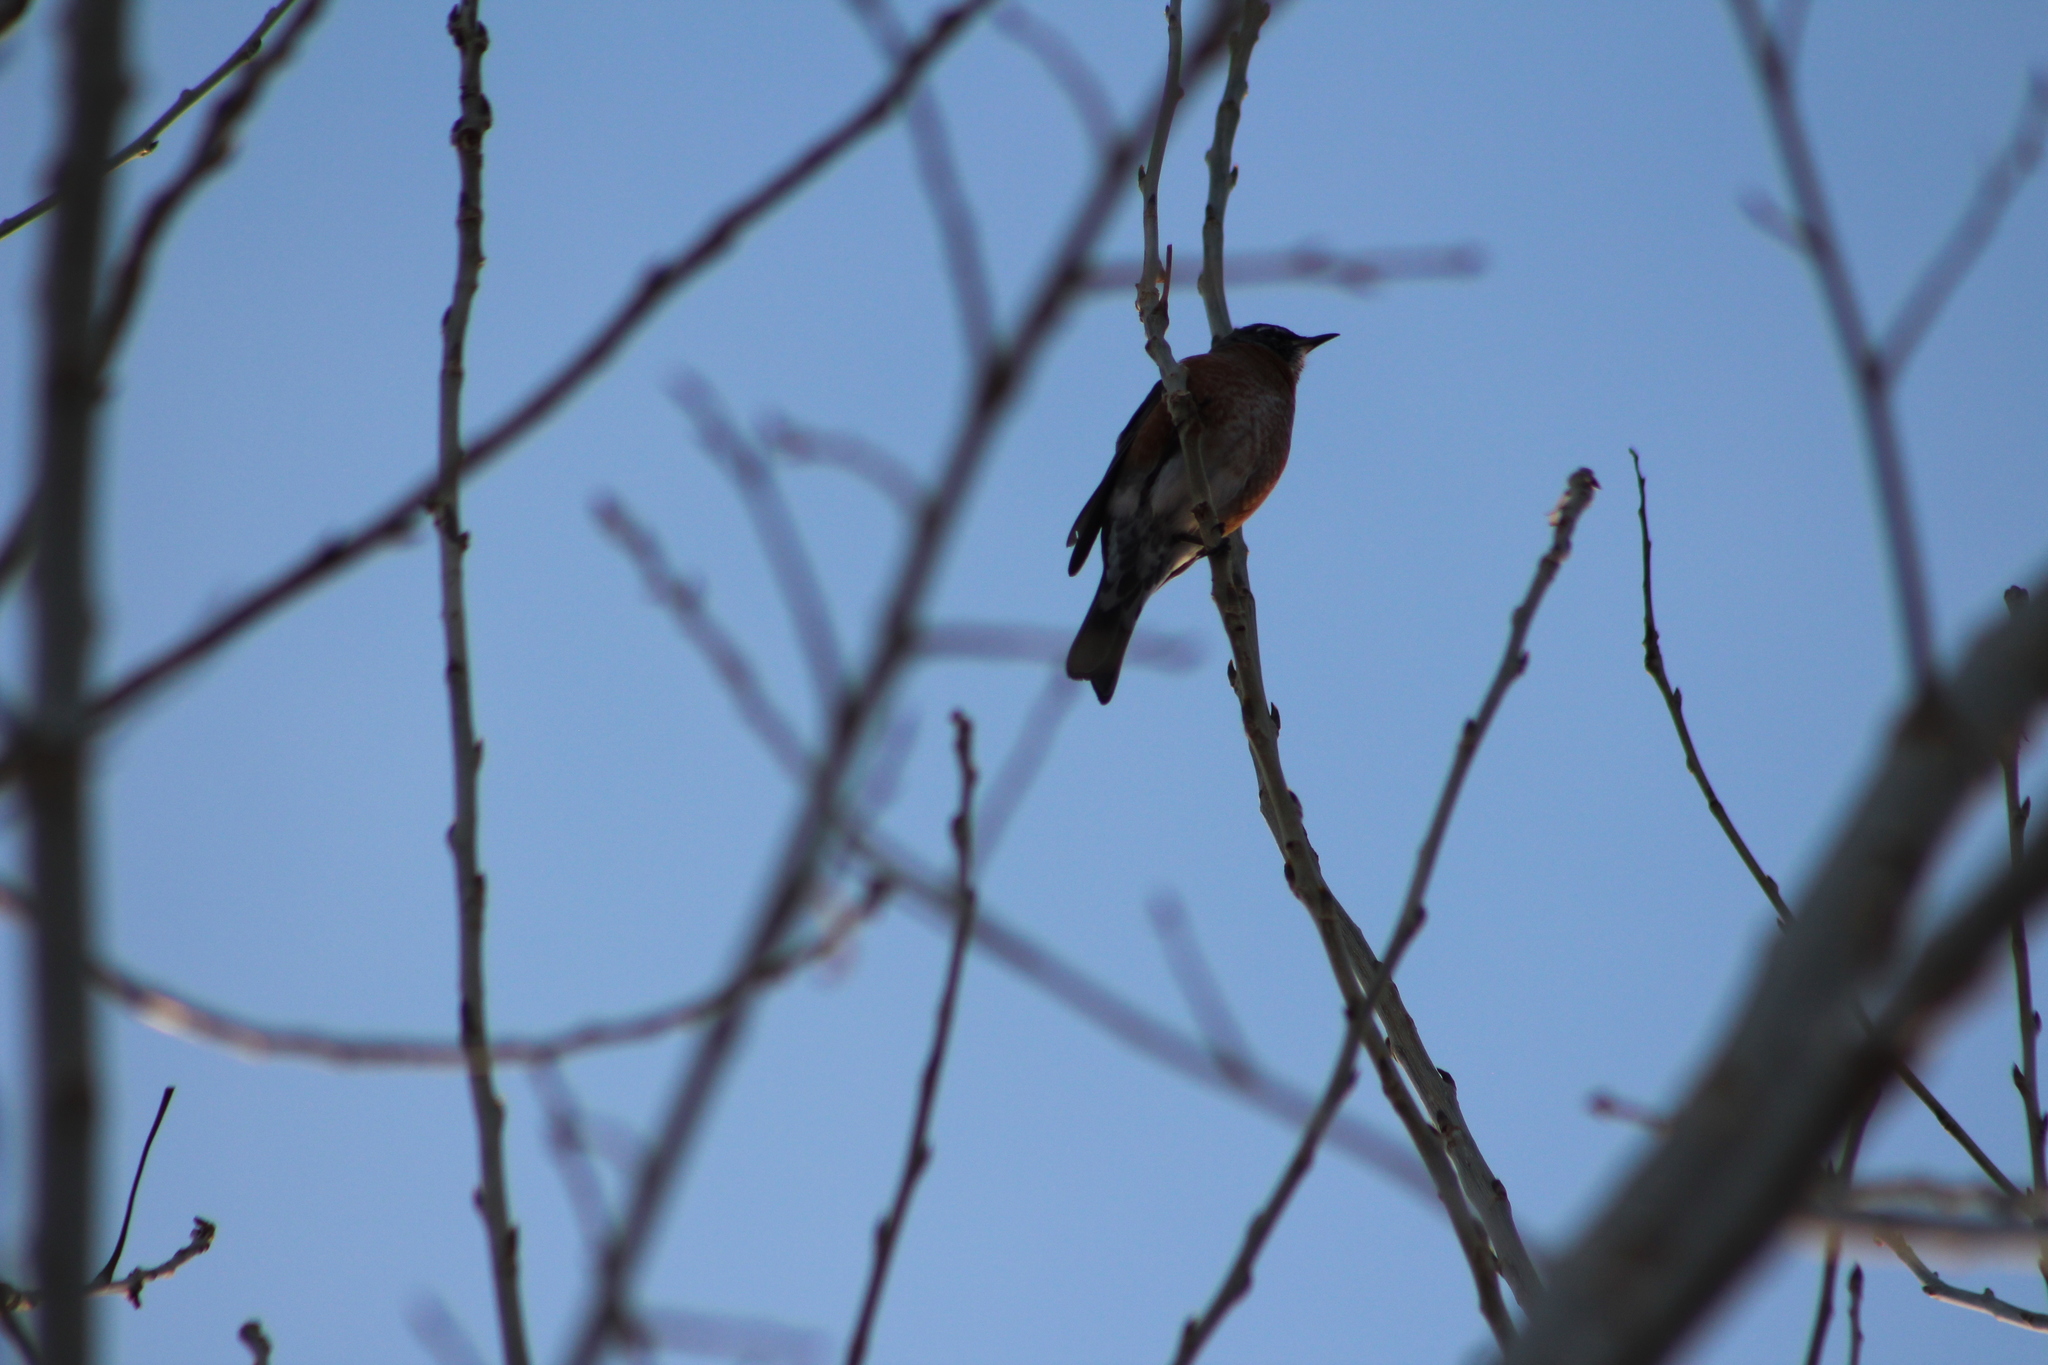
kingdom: Animalia
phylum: Chordata
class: Aves
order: Passeriformes
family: Turdidae
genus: Turdus
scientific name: Turdus migratorius
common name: American robin
